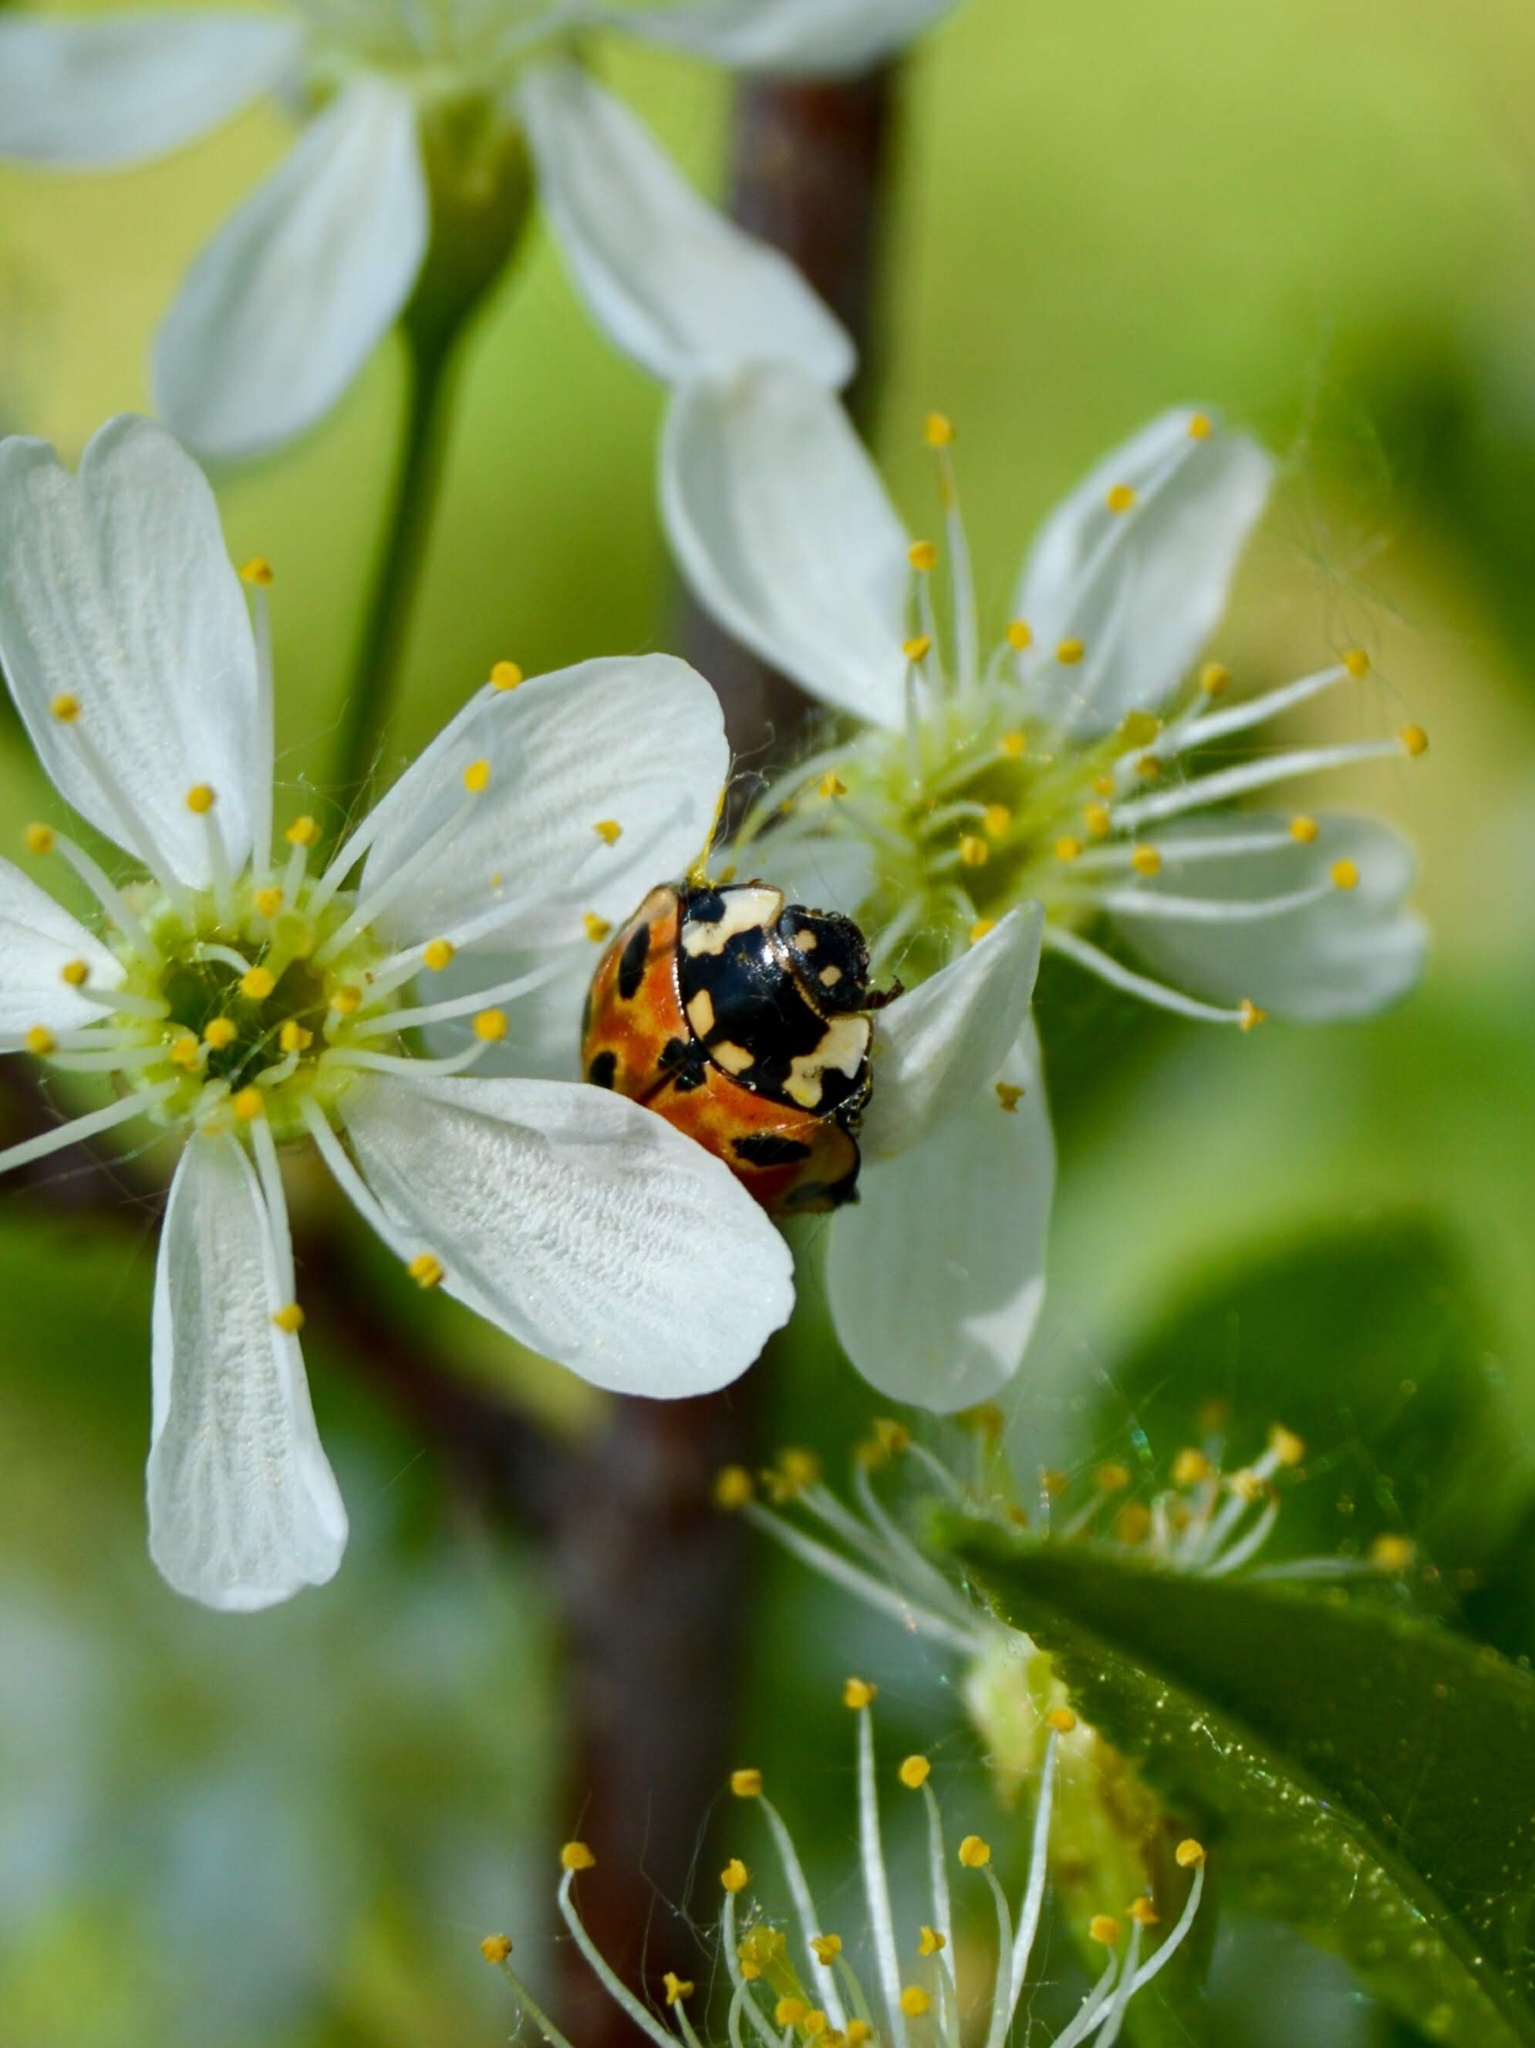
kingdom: Animalia
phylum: Arthropoda
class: Insecta
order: Coleoptera
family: Coccinellidae
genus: Anatis
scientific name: Anatis ocellata
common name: Eyed ladybird
